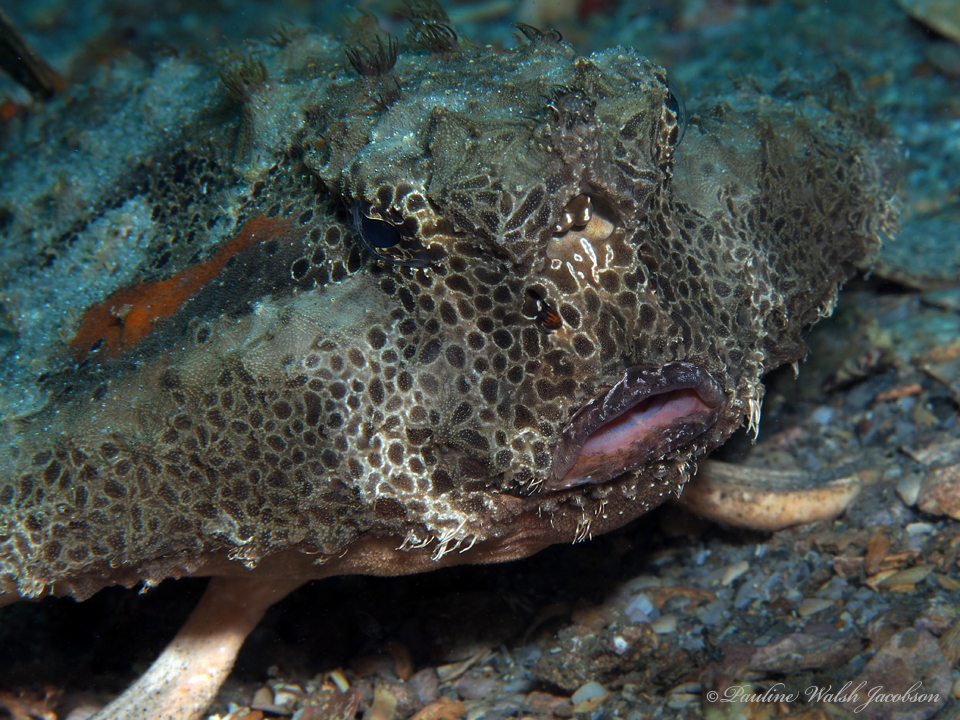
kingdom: Animalia
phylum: Chordata
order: Lophiiformes
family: Ogcocephalidae
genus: Ogcocephalus
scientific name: Ogcocephalus cubifrons
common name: Polka-dot batfish
